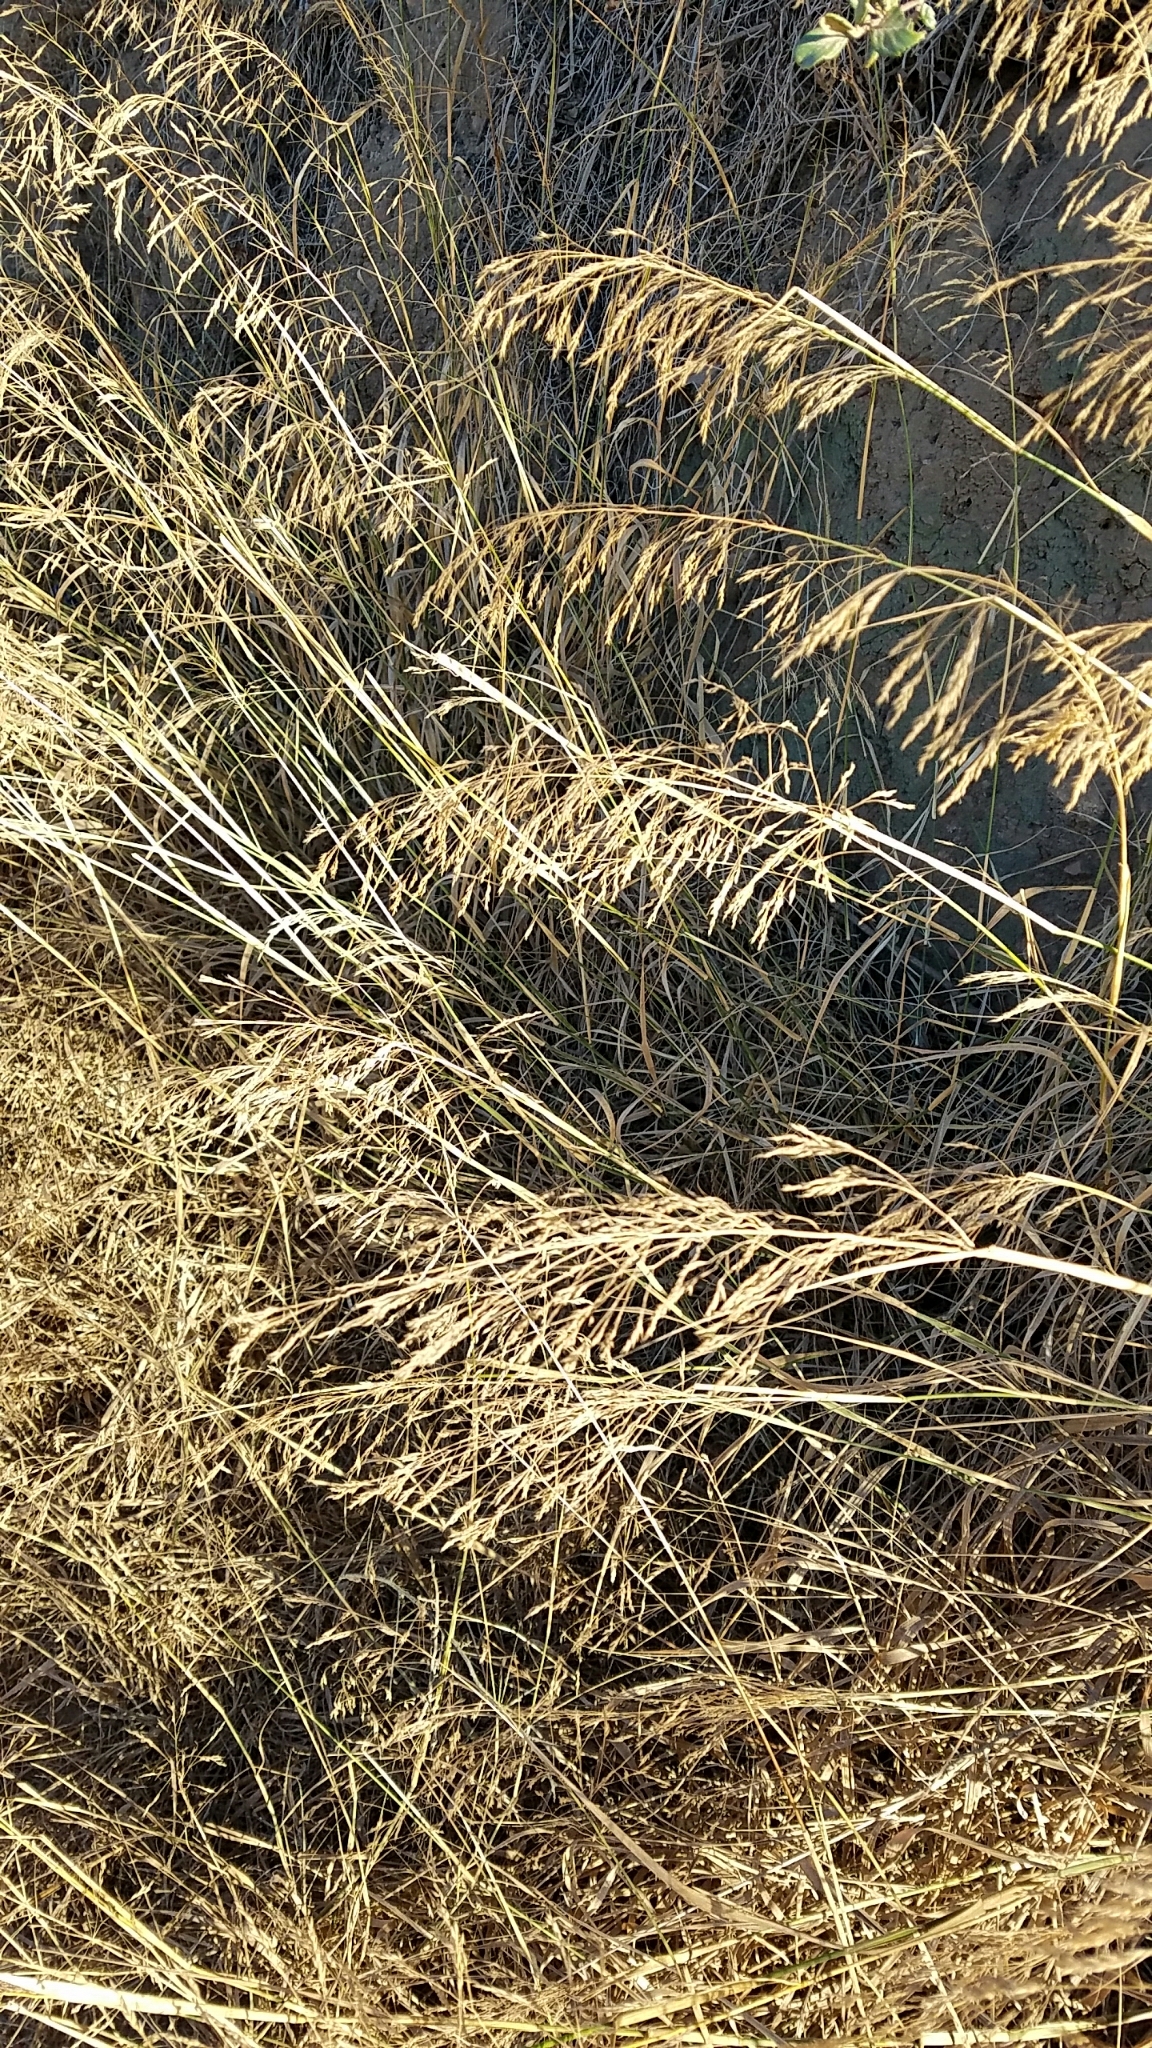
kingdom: Plantae
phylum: Tracheophyta
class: Liliopsida
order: Poales
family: Poaceae
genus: Oloptum
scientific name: Oloptum miliaceum
